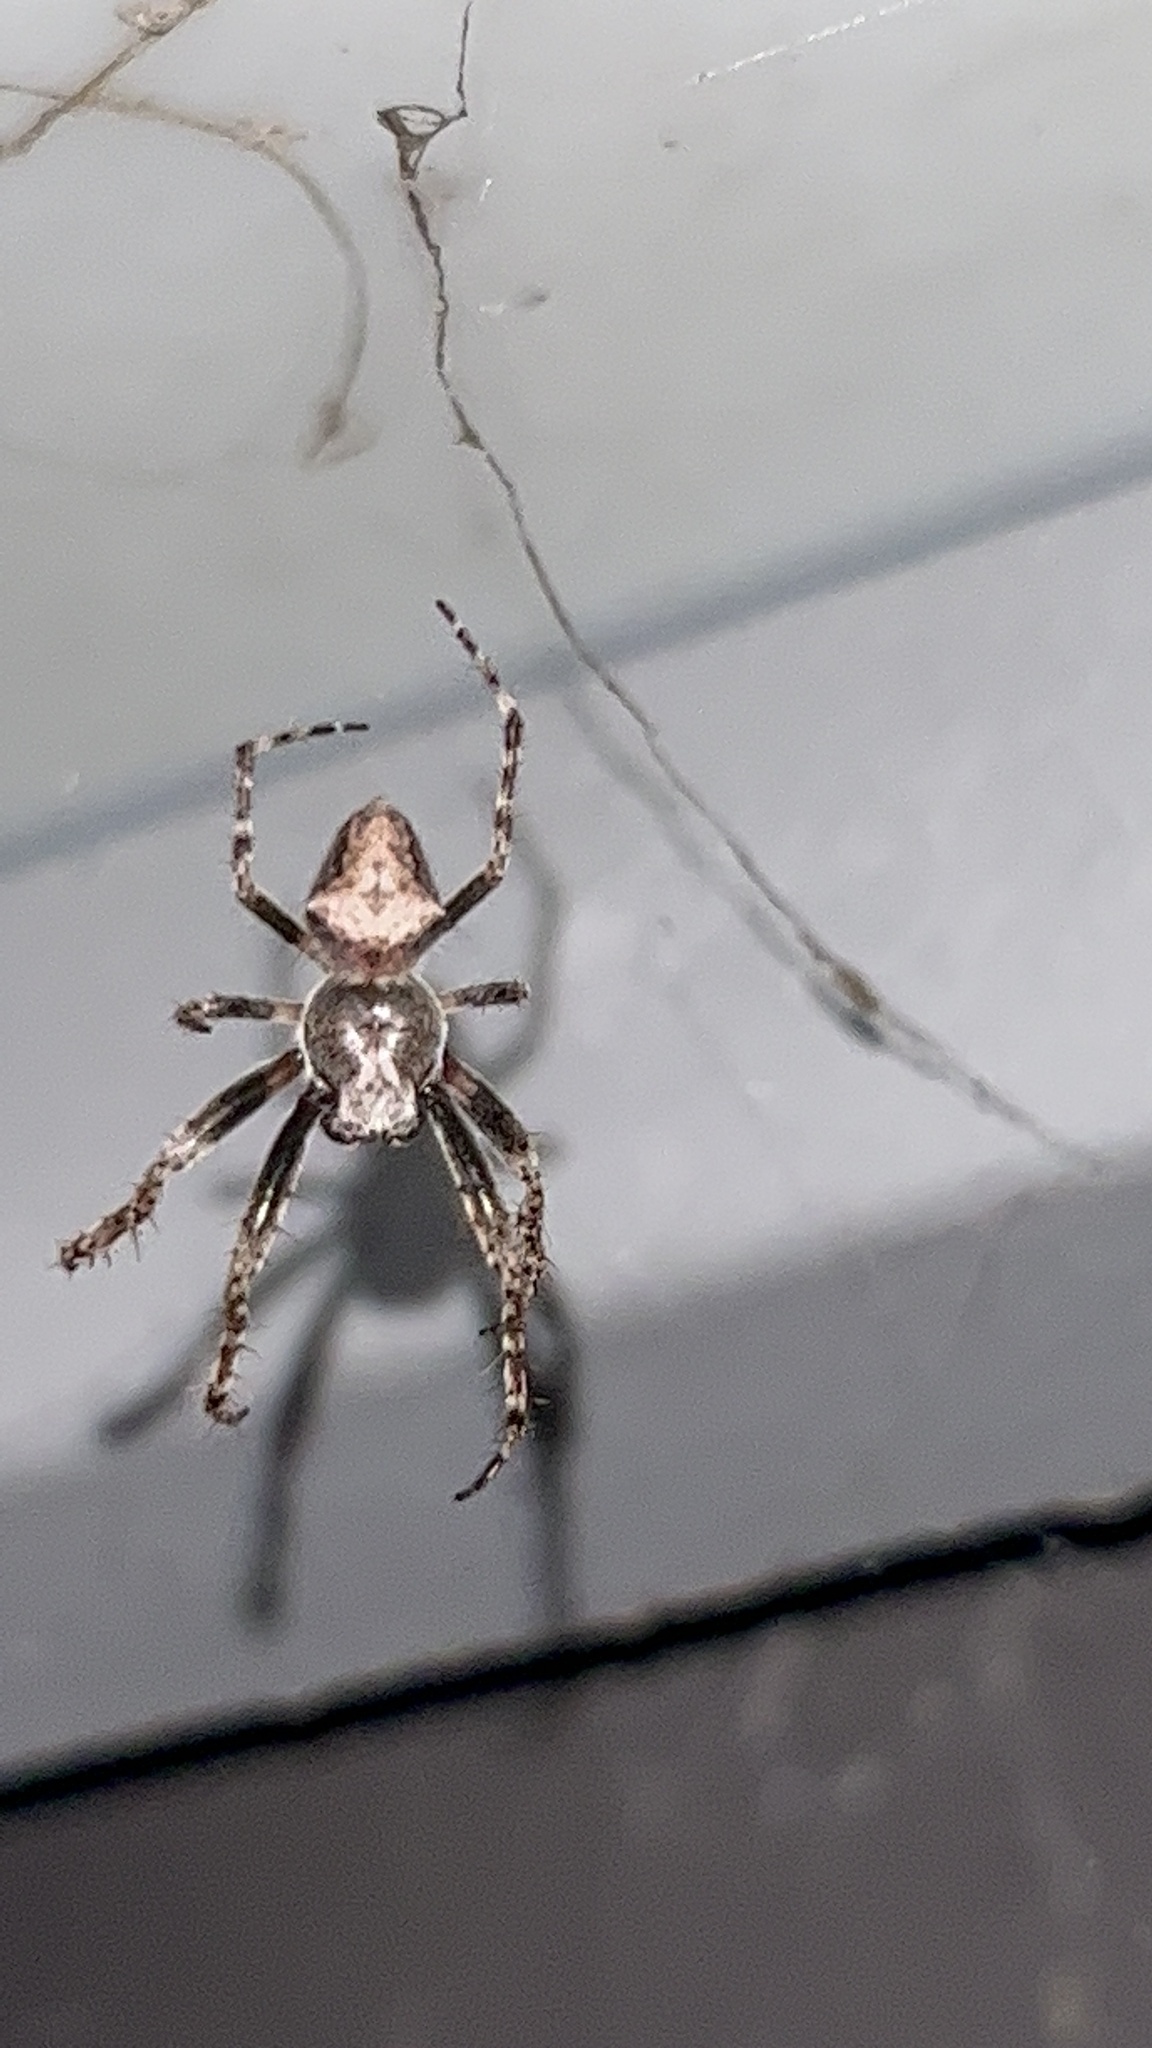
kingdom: Animalia
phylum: Arthropoda
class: Arachnida
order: Araneae
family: Araneidae
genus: Eriophora
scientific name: Eriophora pustulosa
